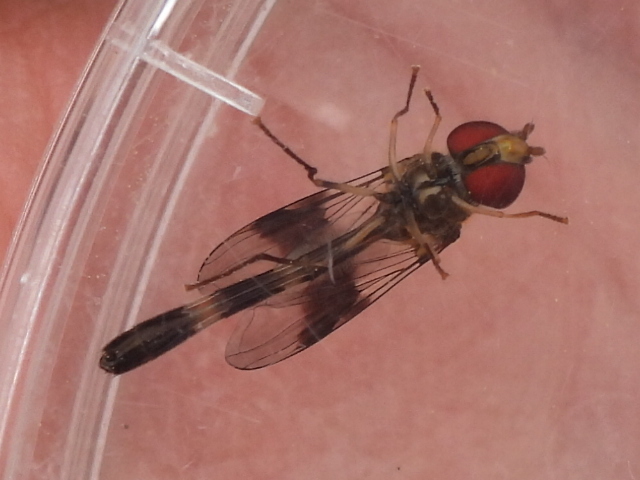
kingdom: Animalia
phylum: Arthropoda
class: Insecta
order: Diptera
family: Syrphidae
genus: Hypocritanus
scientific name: Hypocritanus fascipennis
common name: Eastern band-winged hover fly
